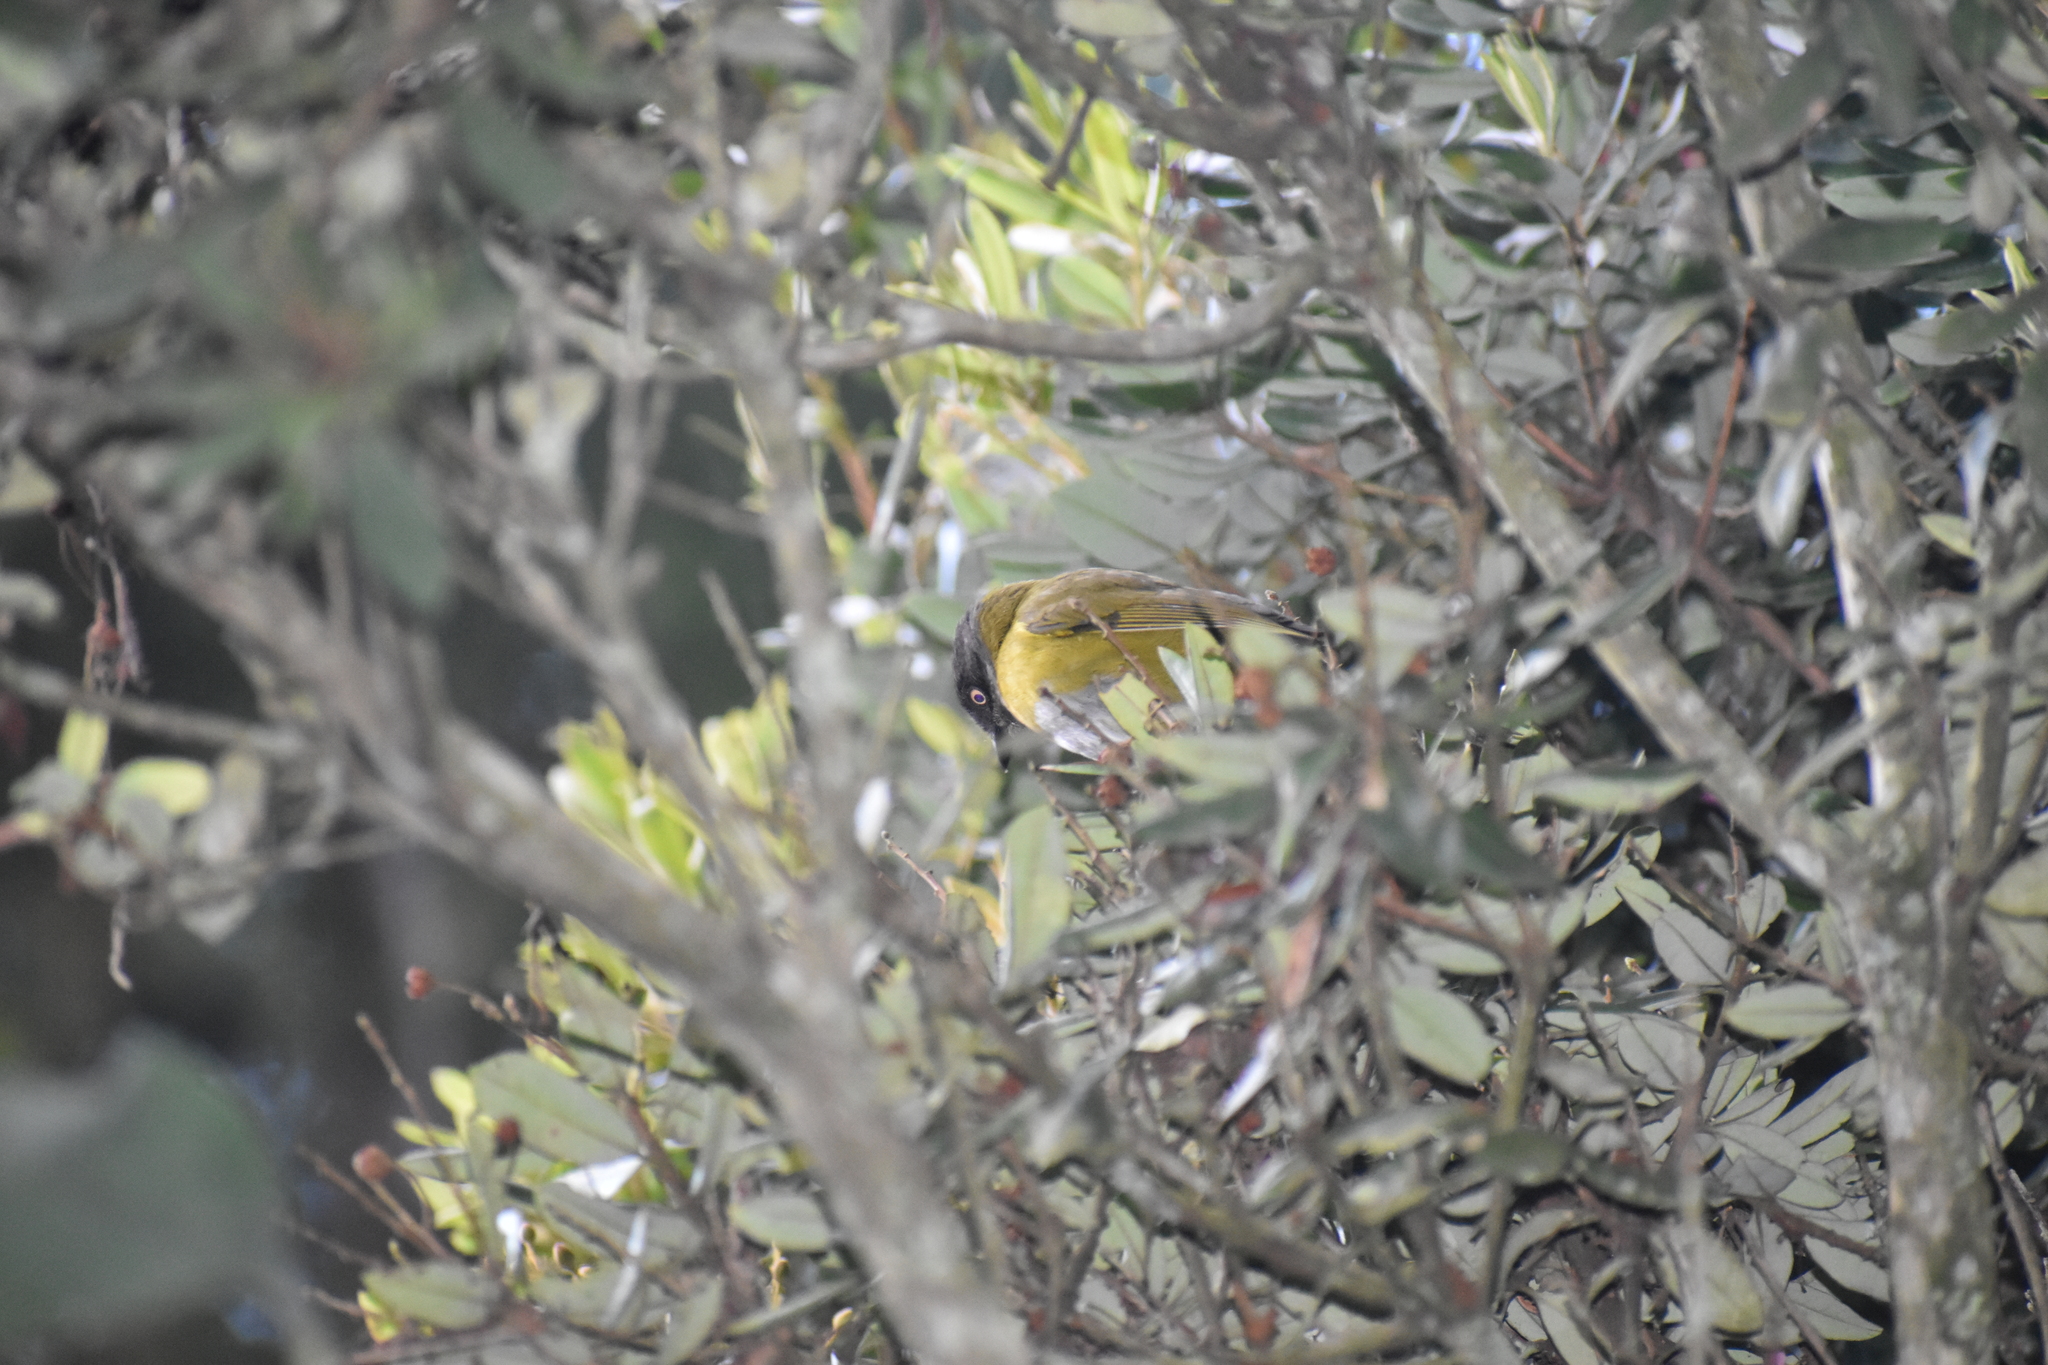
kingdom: Animalia
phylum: Chordata
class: Aves
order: Passeriformes
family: Passerellidae
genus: Chlorospingus
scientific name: Chlorospingus flavopectus
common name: Common chlorospingus
